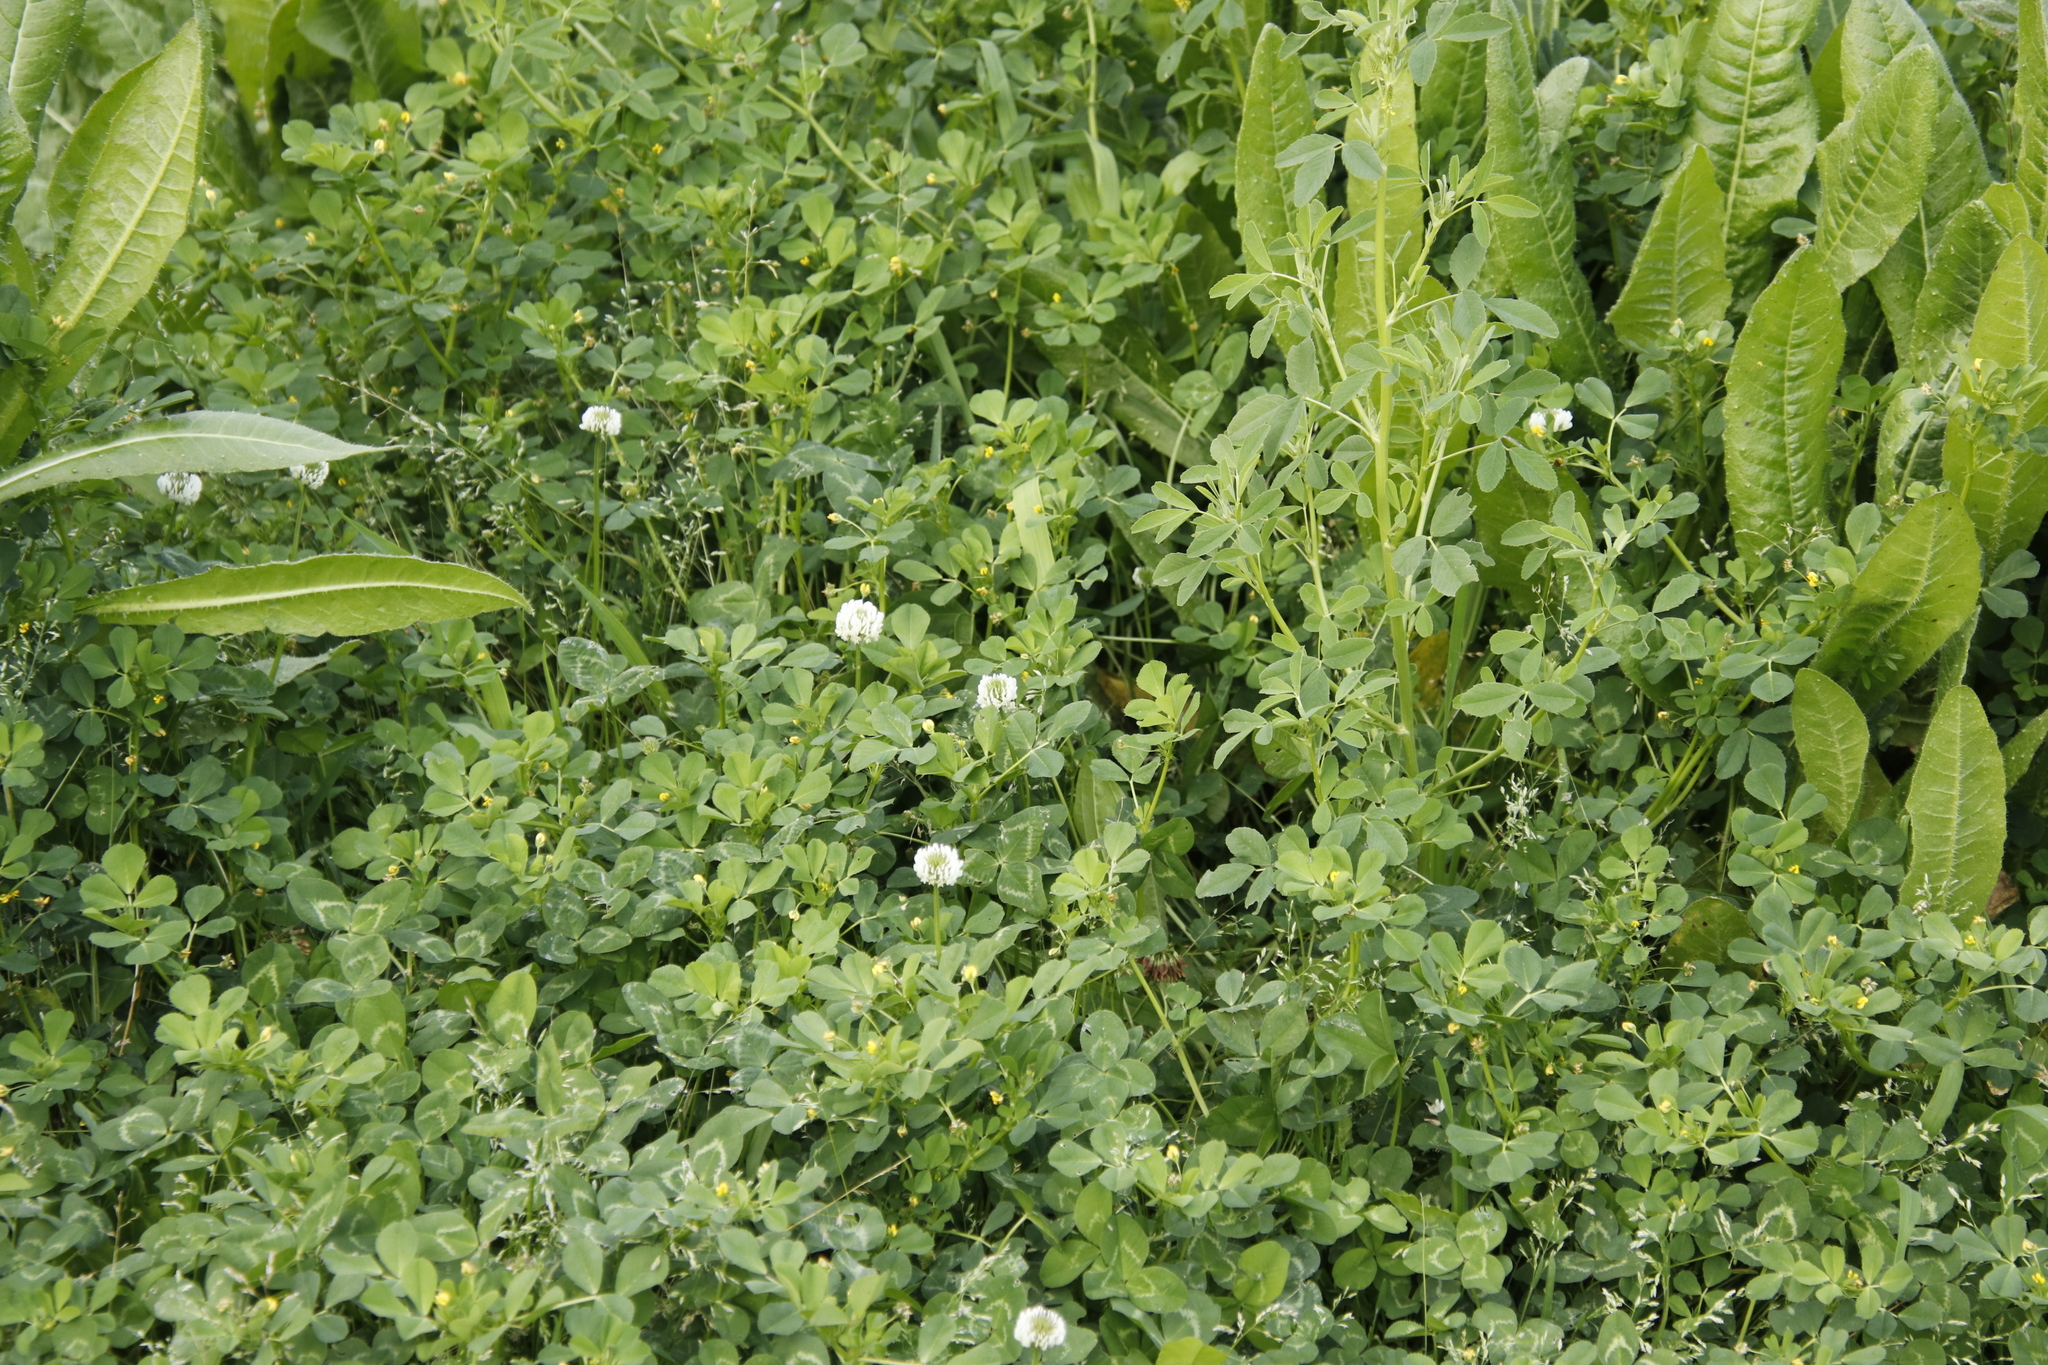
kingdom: Plantae
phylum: Tracheophyta
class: Magnoliopsida
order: Fabales
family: Fabaceae
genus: Trifolium
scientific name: Trifolium repens
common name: White clover
